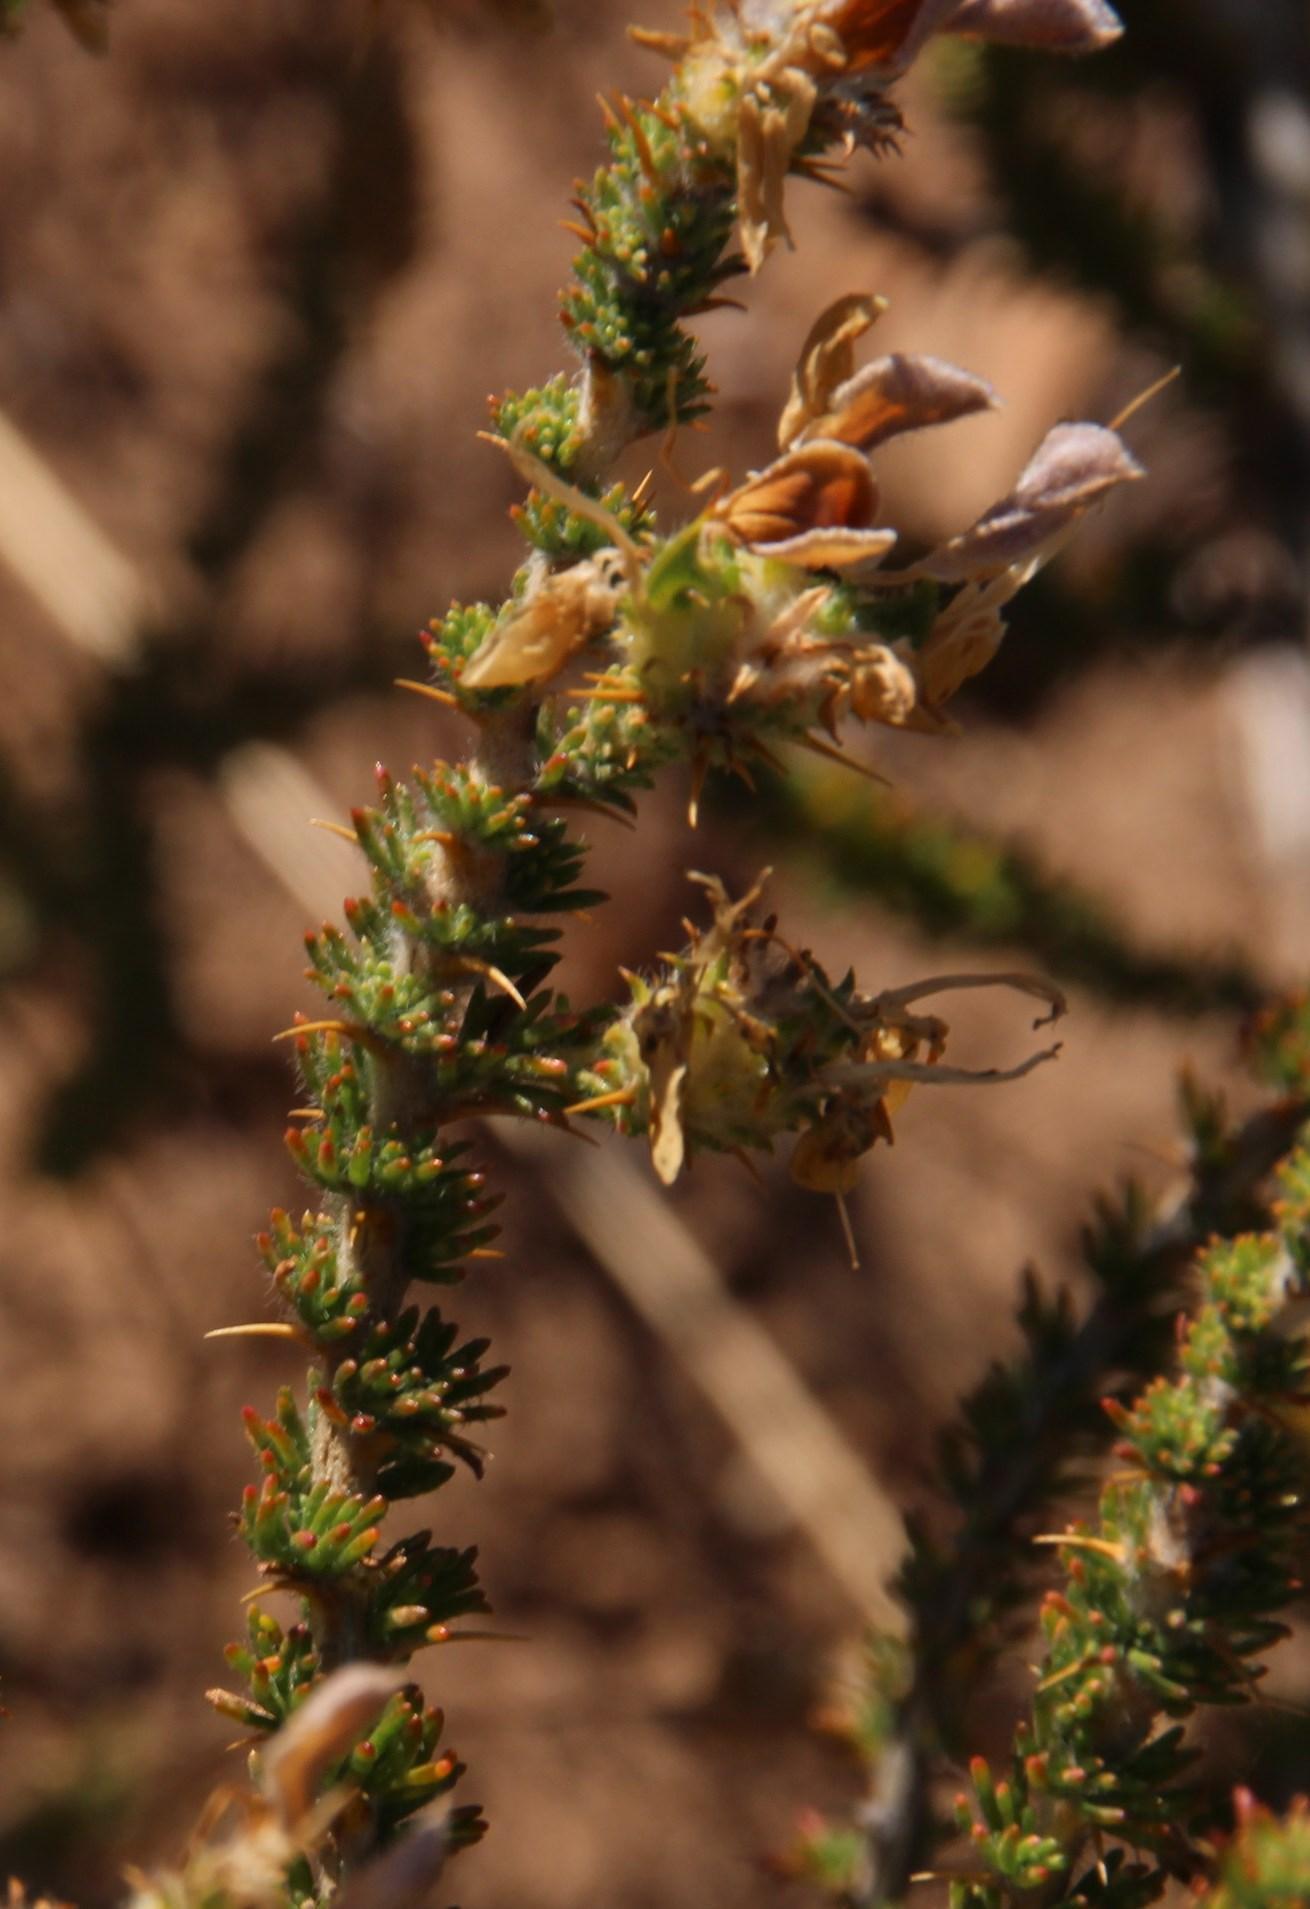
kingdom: Plantae
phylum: Tracheophyta
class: Magnoliopsida
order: Fabales
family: Fabaceae
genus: Aspalathus
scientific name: Aspalathus aculeata
